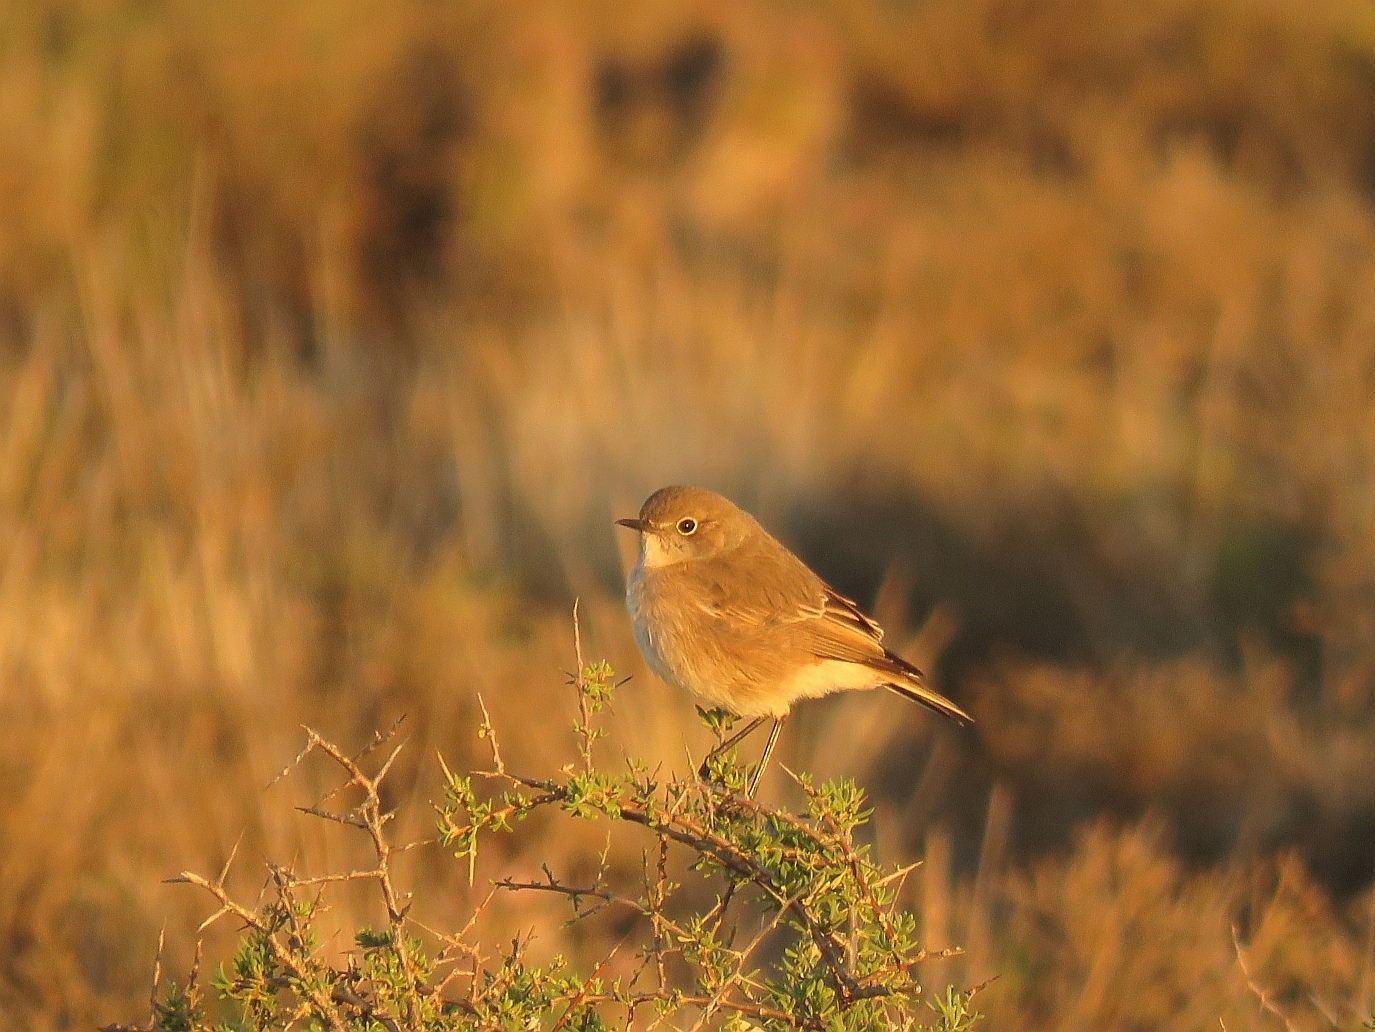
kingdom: Animalia
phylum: Chordata
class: Aves
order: Passeriformes
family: Muscicapidae
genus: Emarginata
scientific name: Emarginata sinuata
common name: Sickle-winged chat
